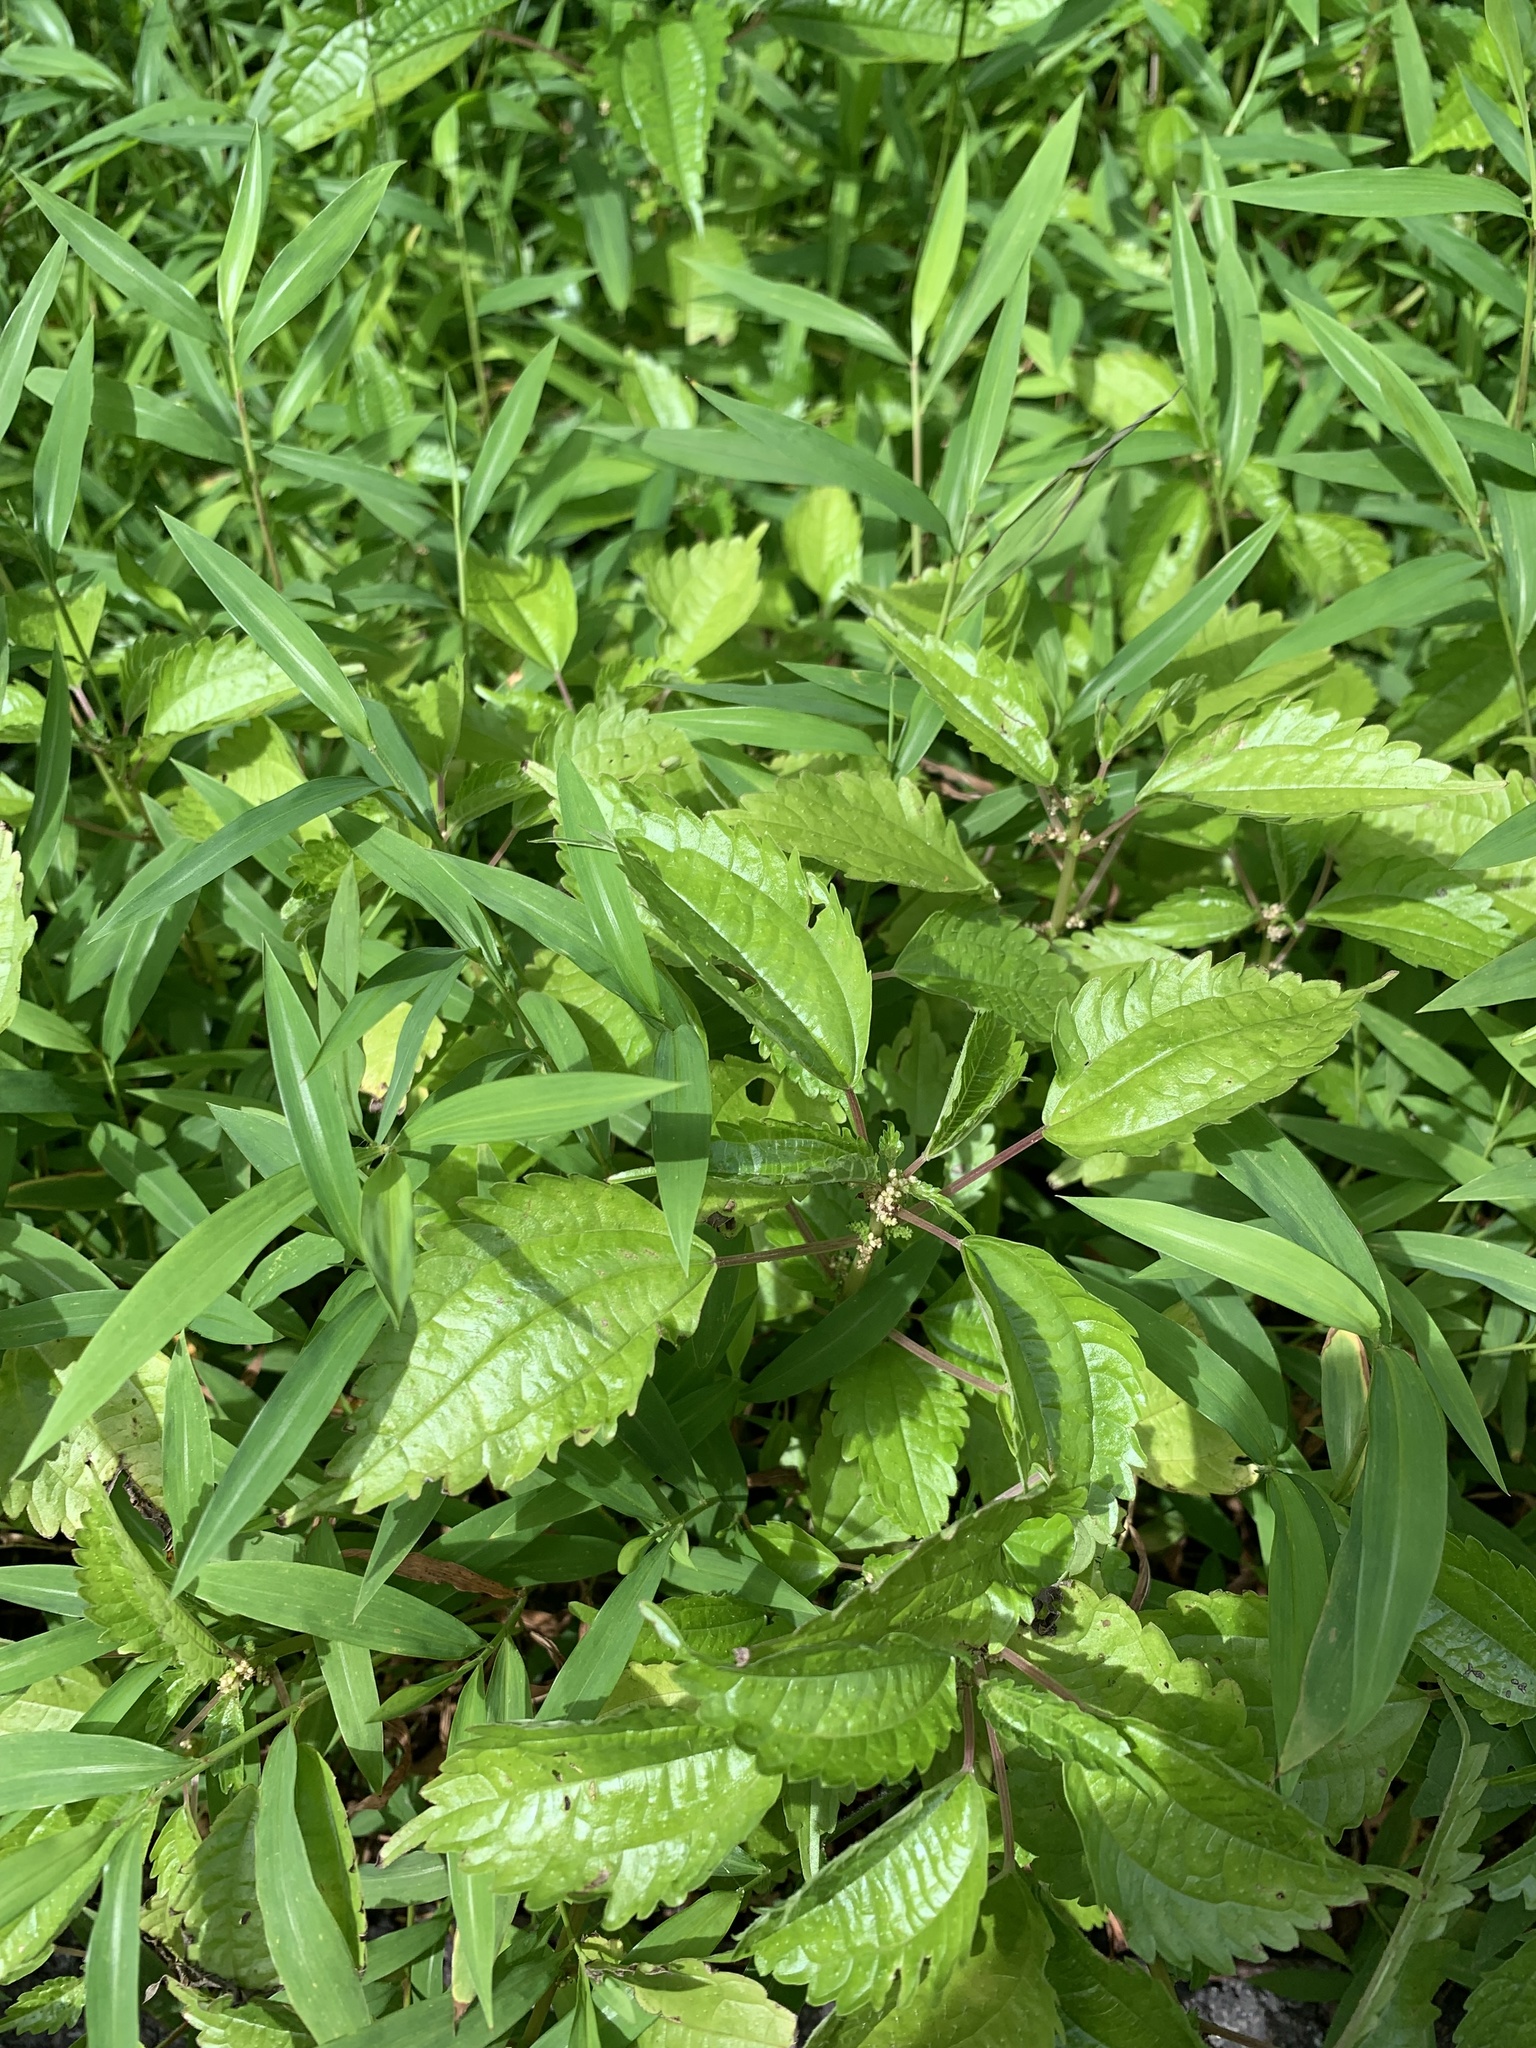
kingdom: Plantae
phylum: Tracheophyta
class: Magnoliopsida
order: Rosales
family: Urticaceae
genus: Pilea
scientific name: Pilea pumila
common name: Clearweed
